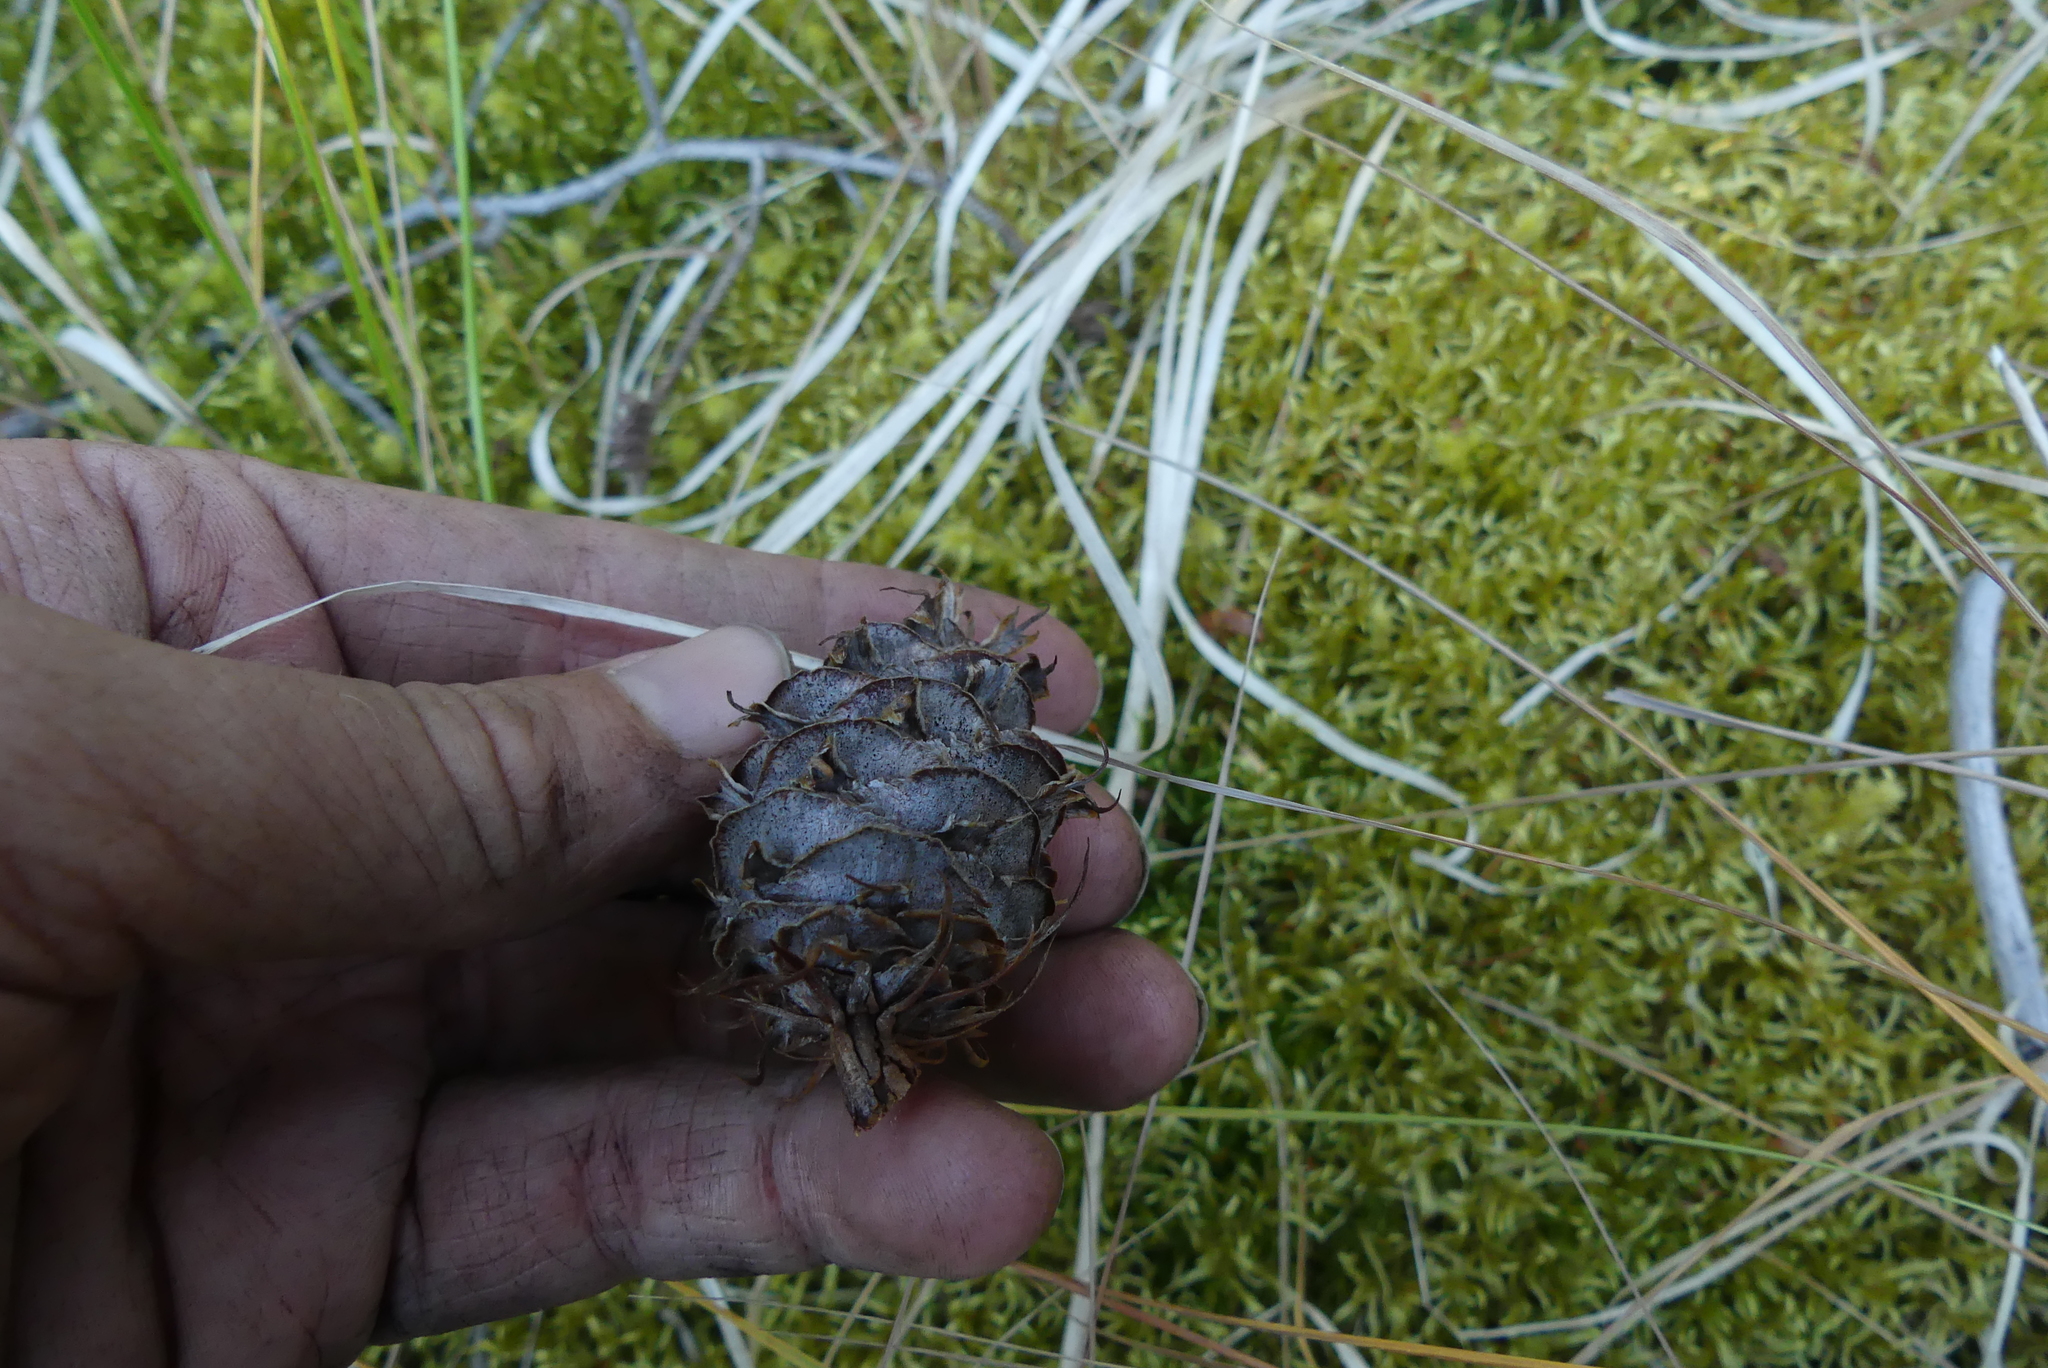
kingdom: Plantae
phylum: Tracheophyta
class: Pinopsida
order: Pinales
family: Pinaceae
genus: Pseudotsuga
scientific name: Pseudotsuga menziesii
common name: Douglas fir
